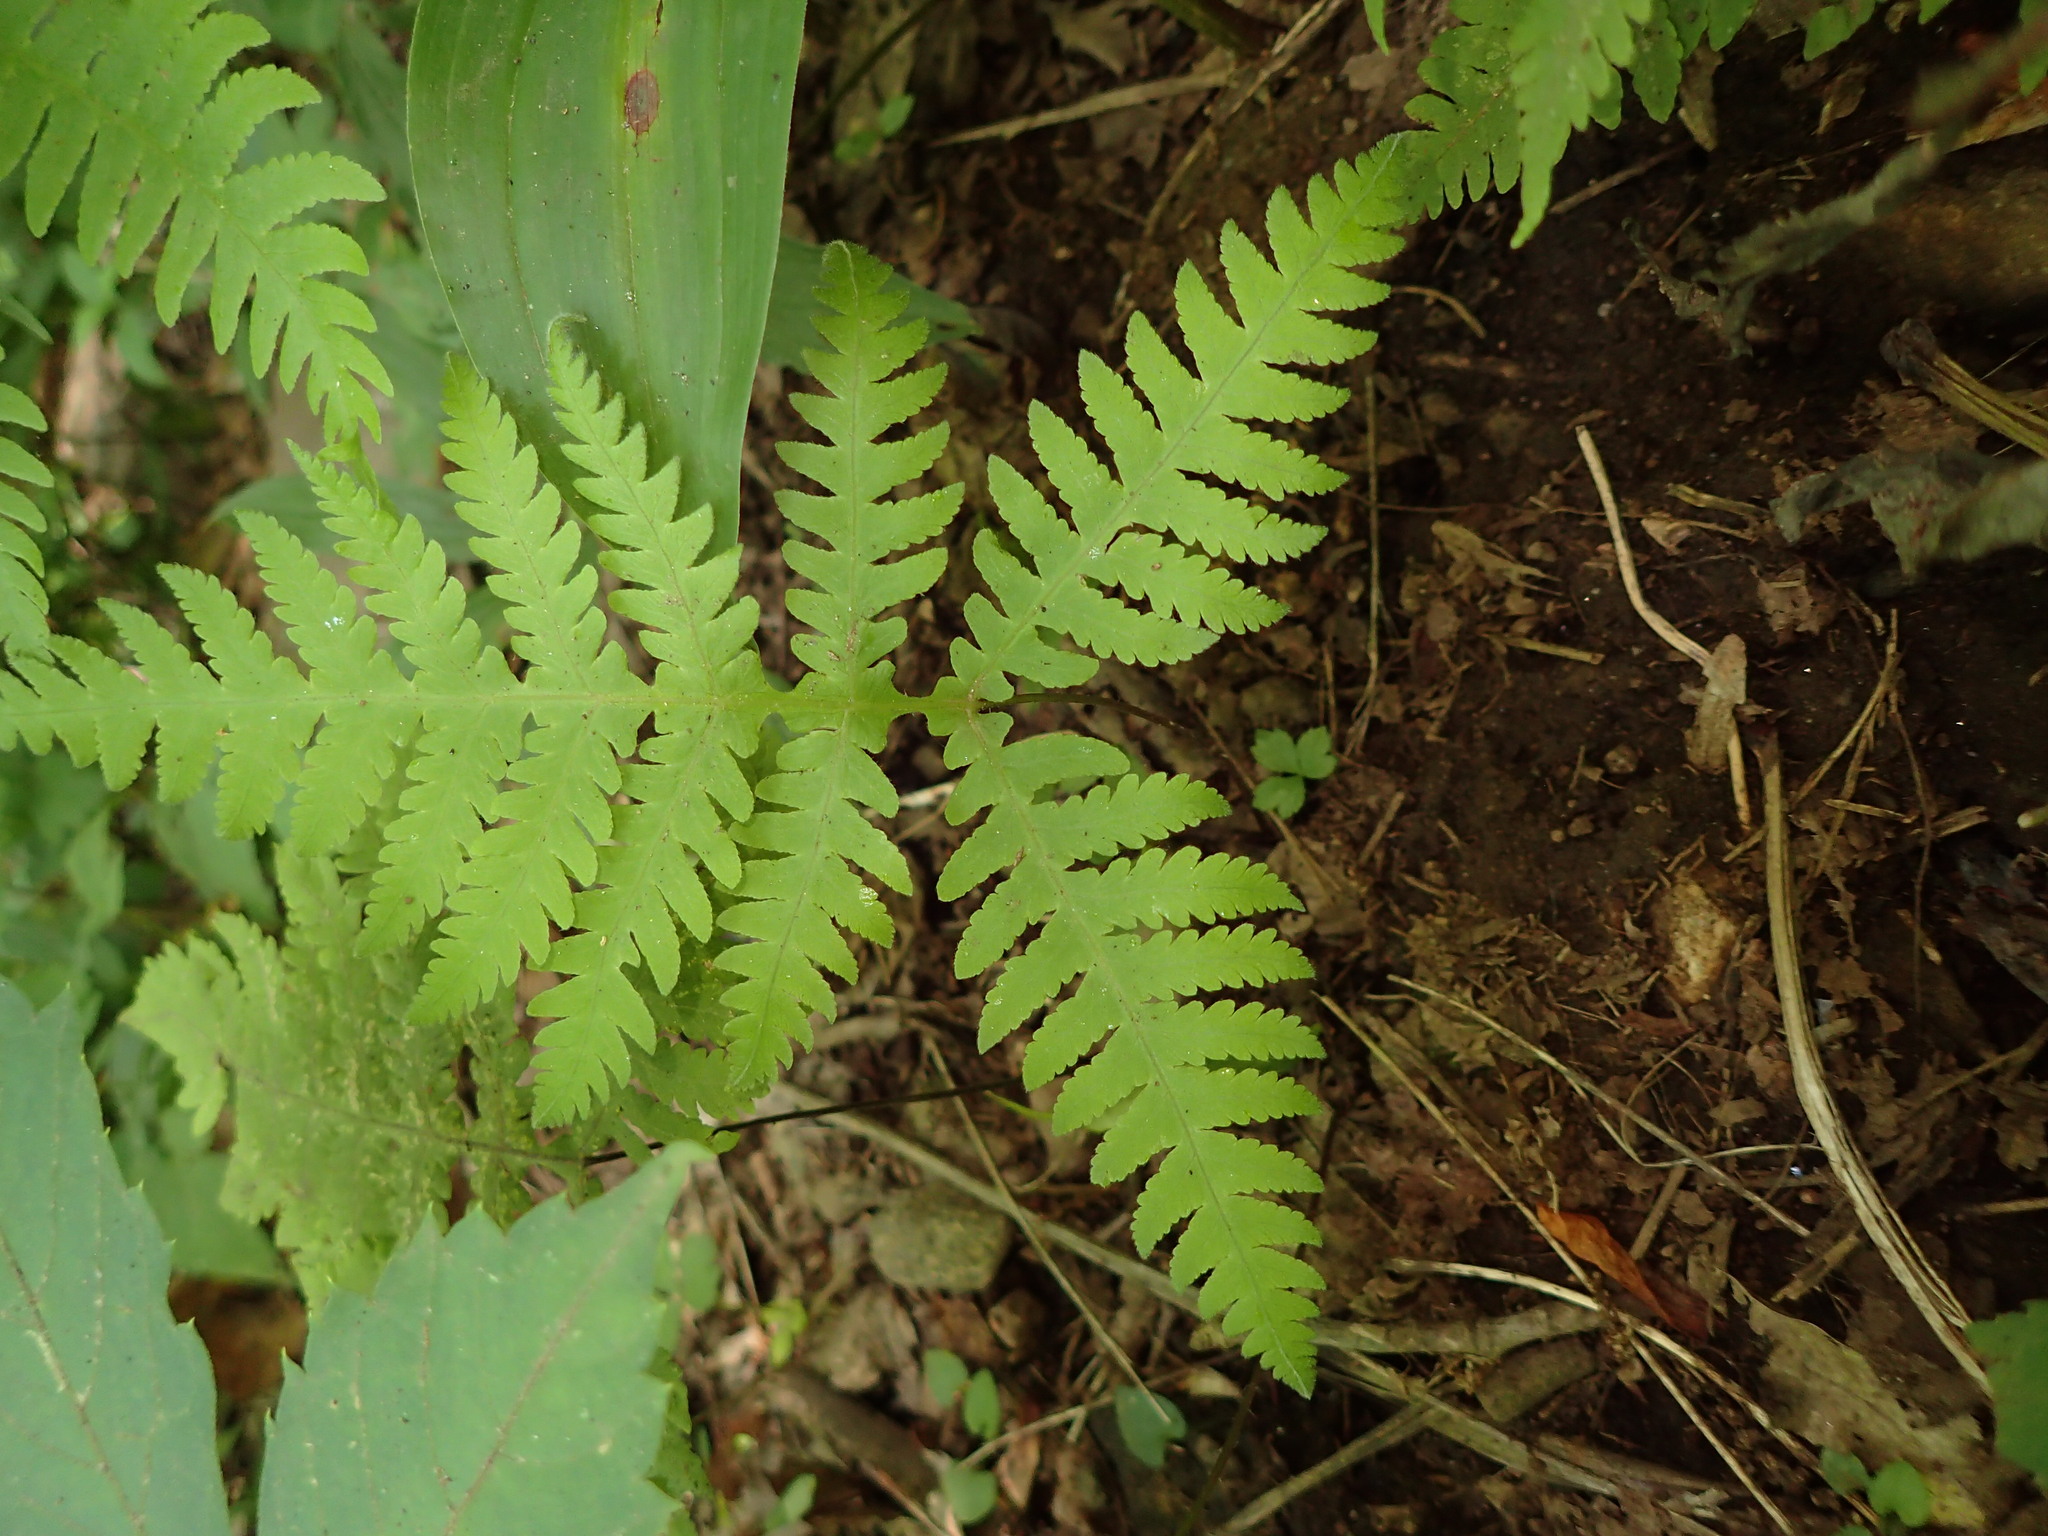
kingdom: Plantae
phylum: Tracheophyta
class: Polypodiopsida
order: Polypodiales
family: Thelypteridaceae
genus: Phegopteris
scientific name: Phegopteris hexagonoptera
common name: Broad beech fern
